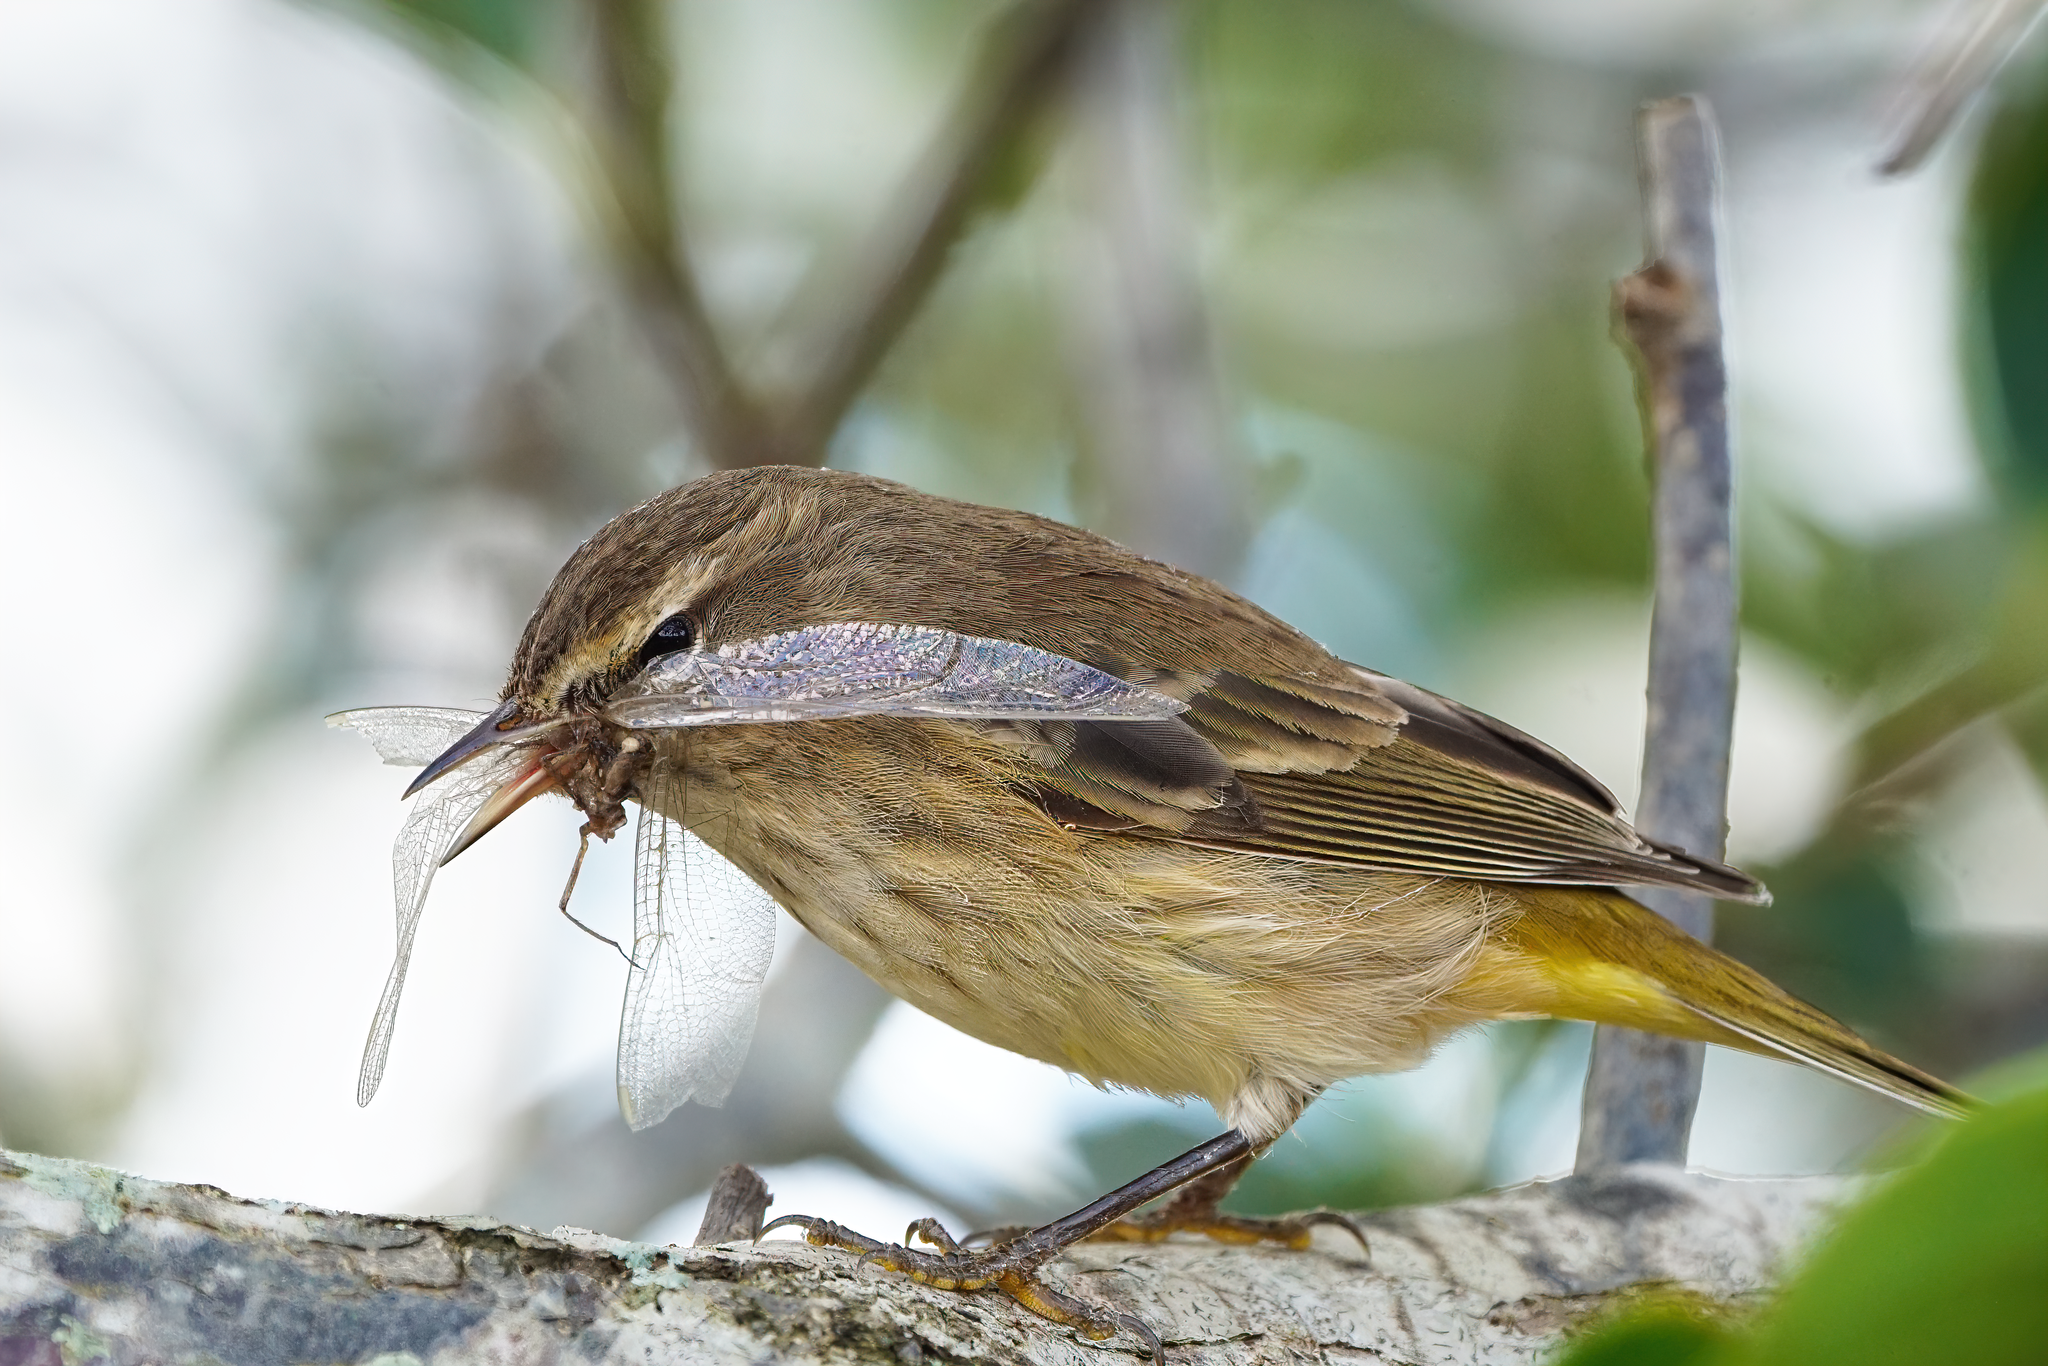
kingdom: Animalia
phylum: Chordata
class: Aves
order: Passeriformes
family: Parulidae
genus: Setophaga
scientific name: Setophaga palmarum
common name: Palm warbler
